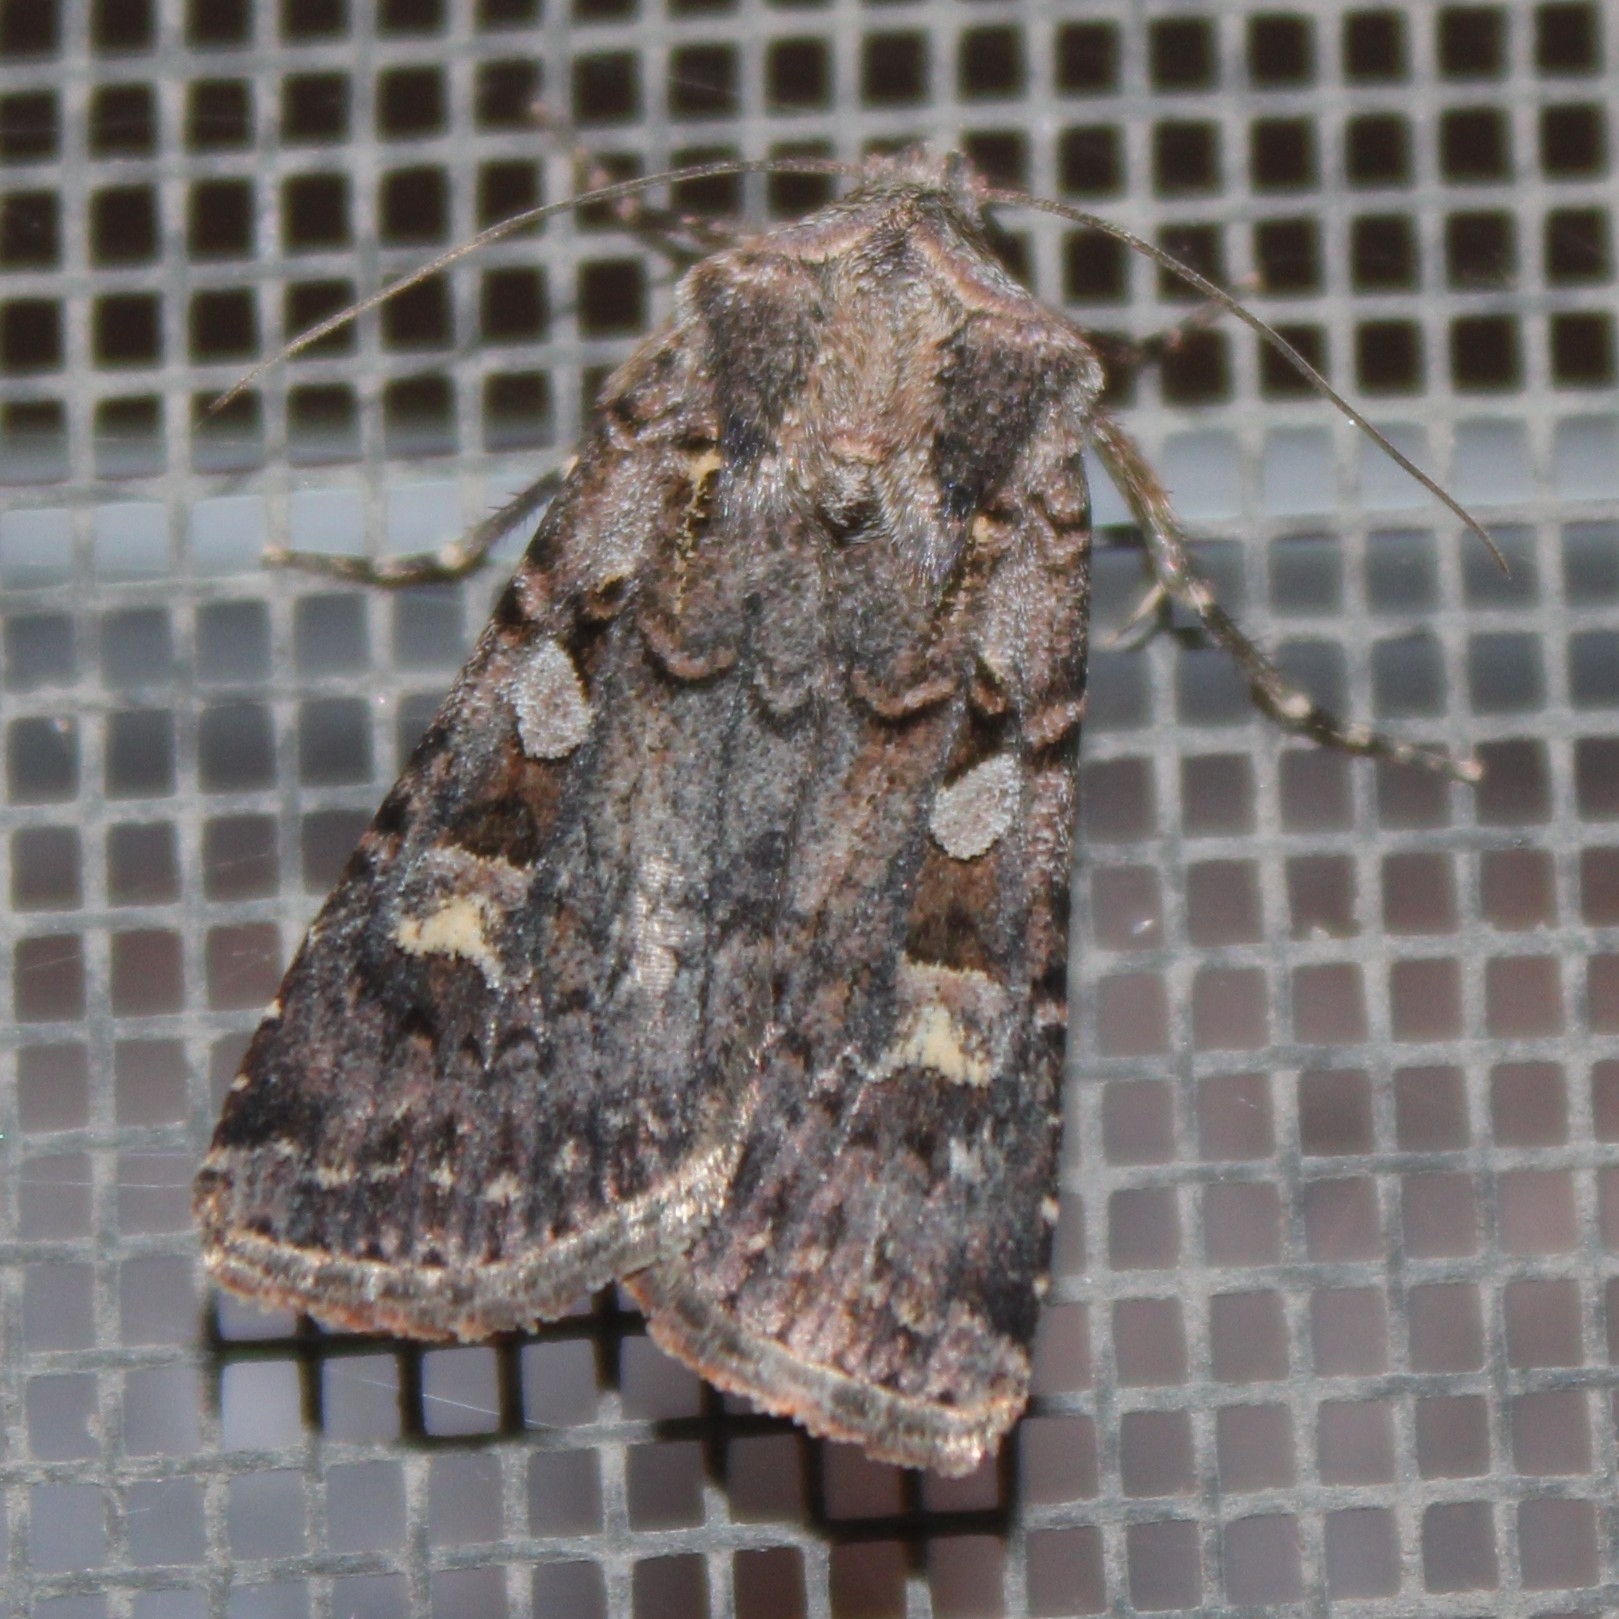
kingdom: Animalia
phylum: Arthropoda
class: Insecta
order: Lepidoptera
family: Noctuidae
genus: Euxoa
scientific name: Euxoa tessellata
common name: Striped cutworm
